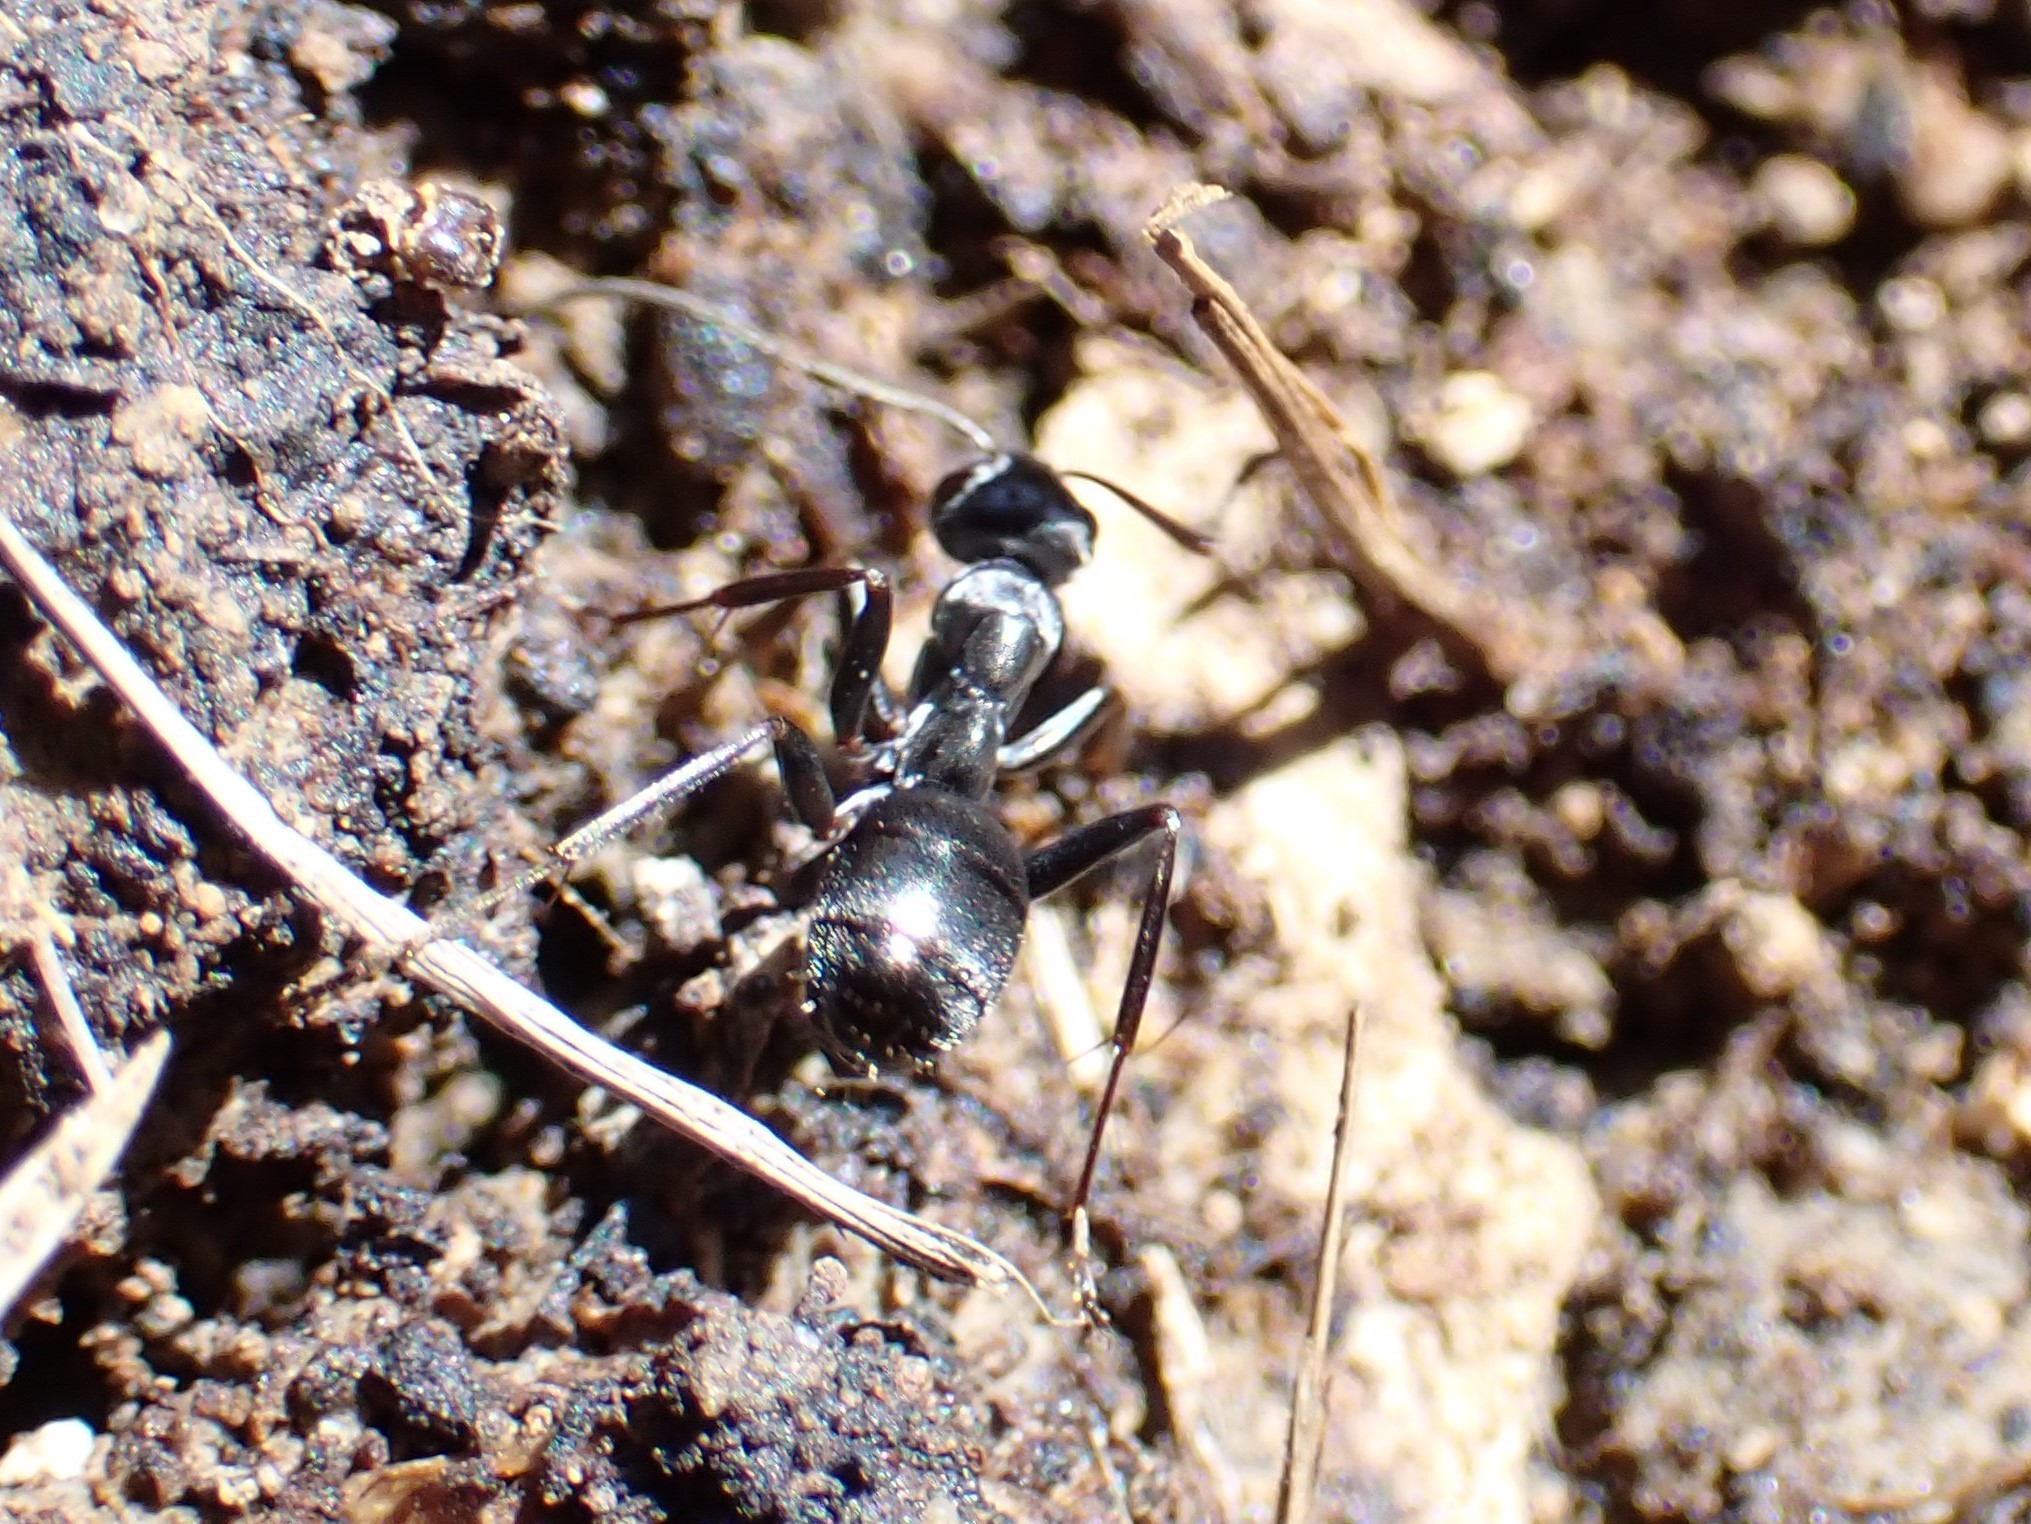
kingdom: Animalia
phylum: Arthropoda
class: Insecta
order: Hymenoptera
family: Formicidae
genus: Formica
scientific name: Formica
